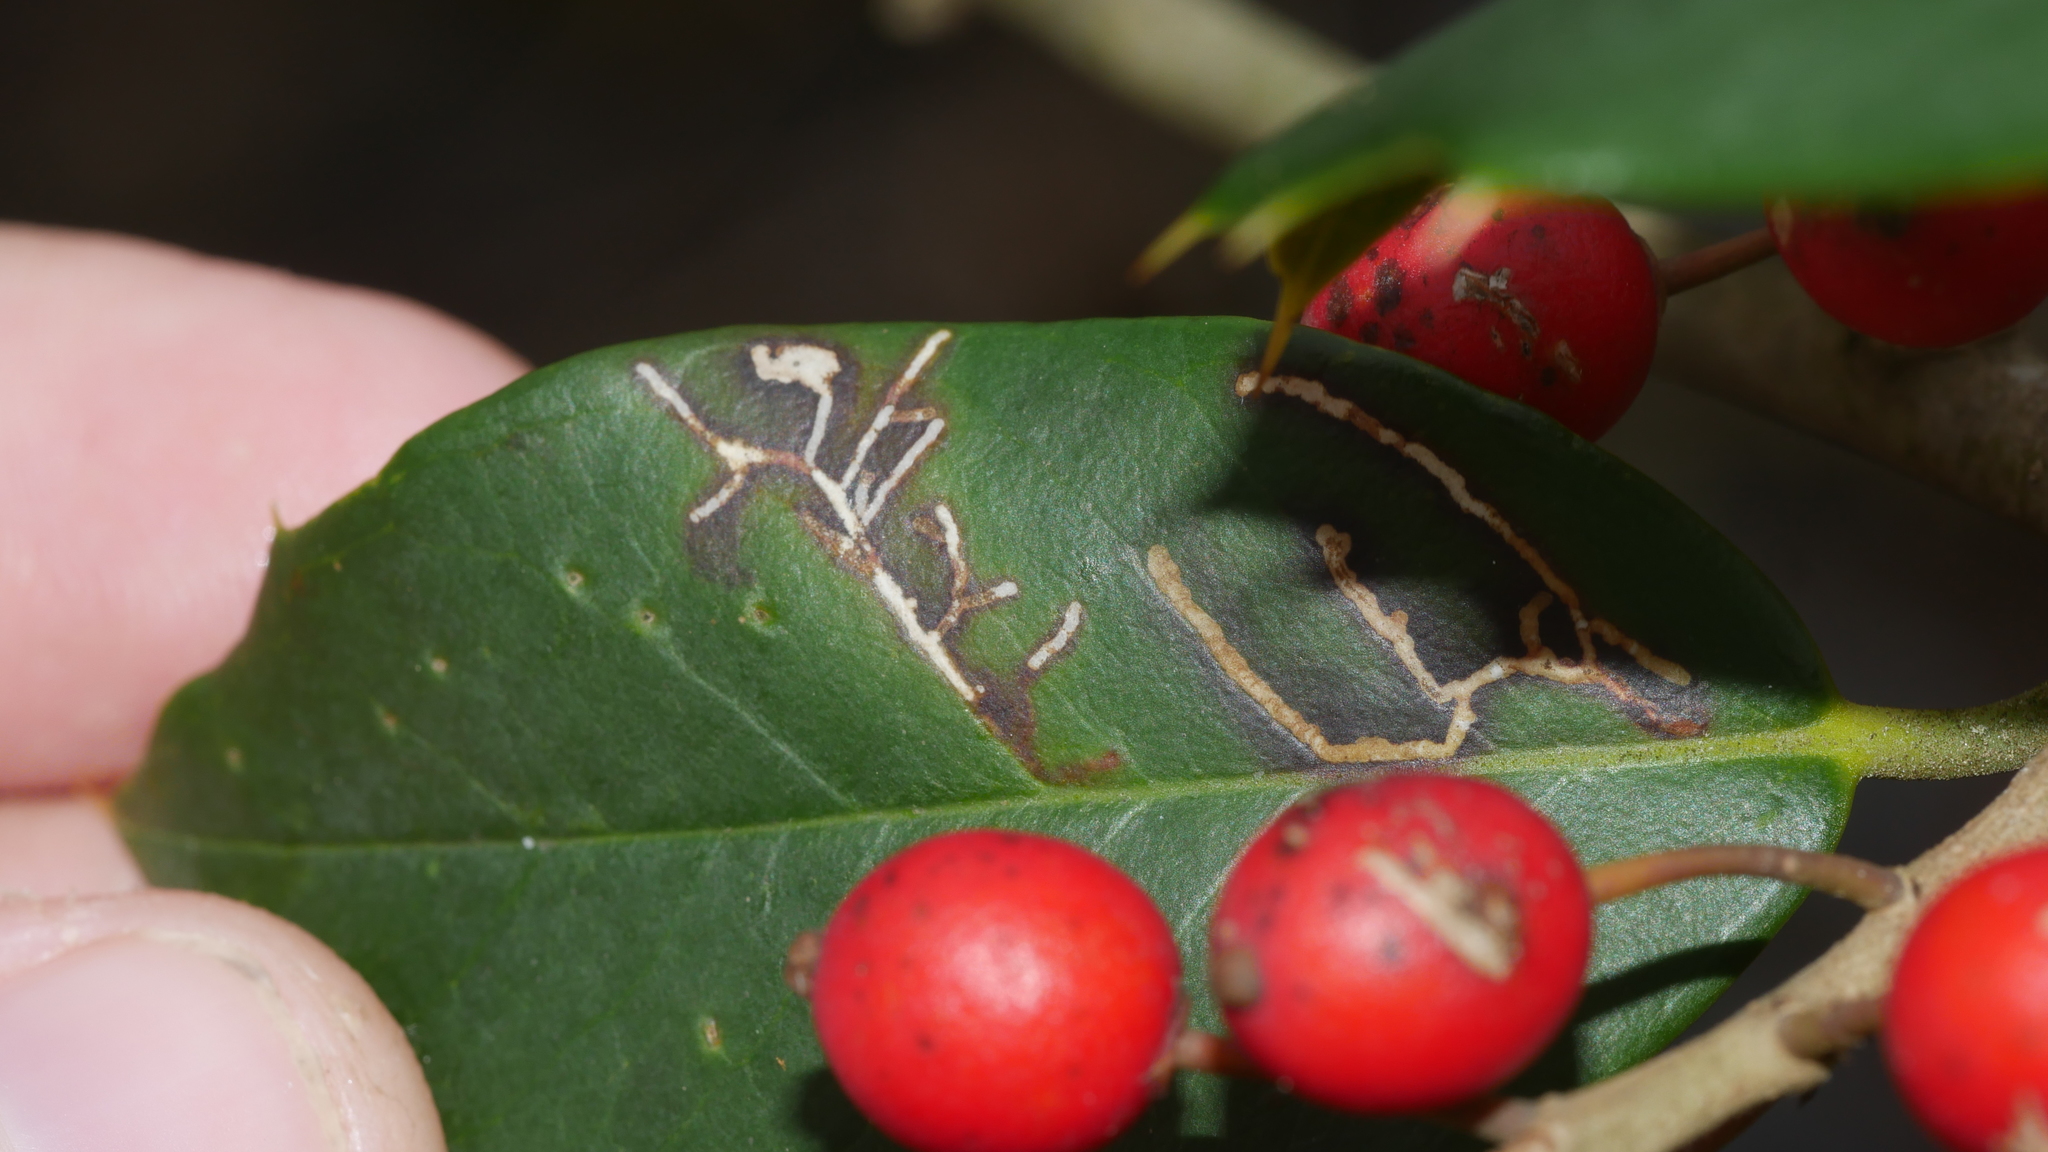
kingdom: Animalia
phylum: Arthropoda
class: Insecta
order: Lepidoptera
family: Tortricidae
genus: Rhopobota
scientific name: Rhopobota
